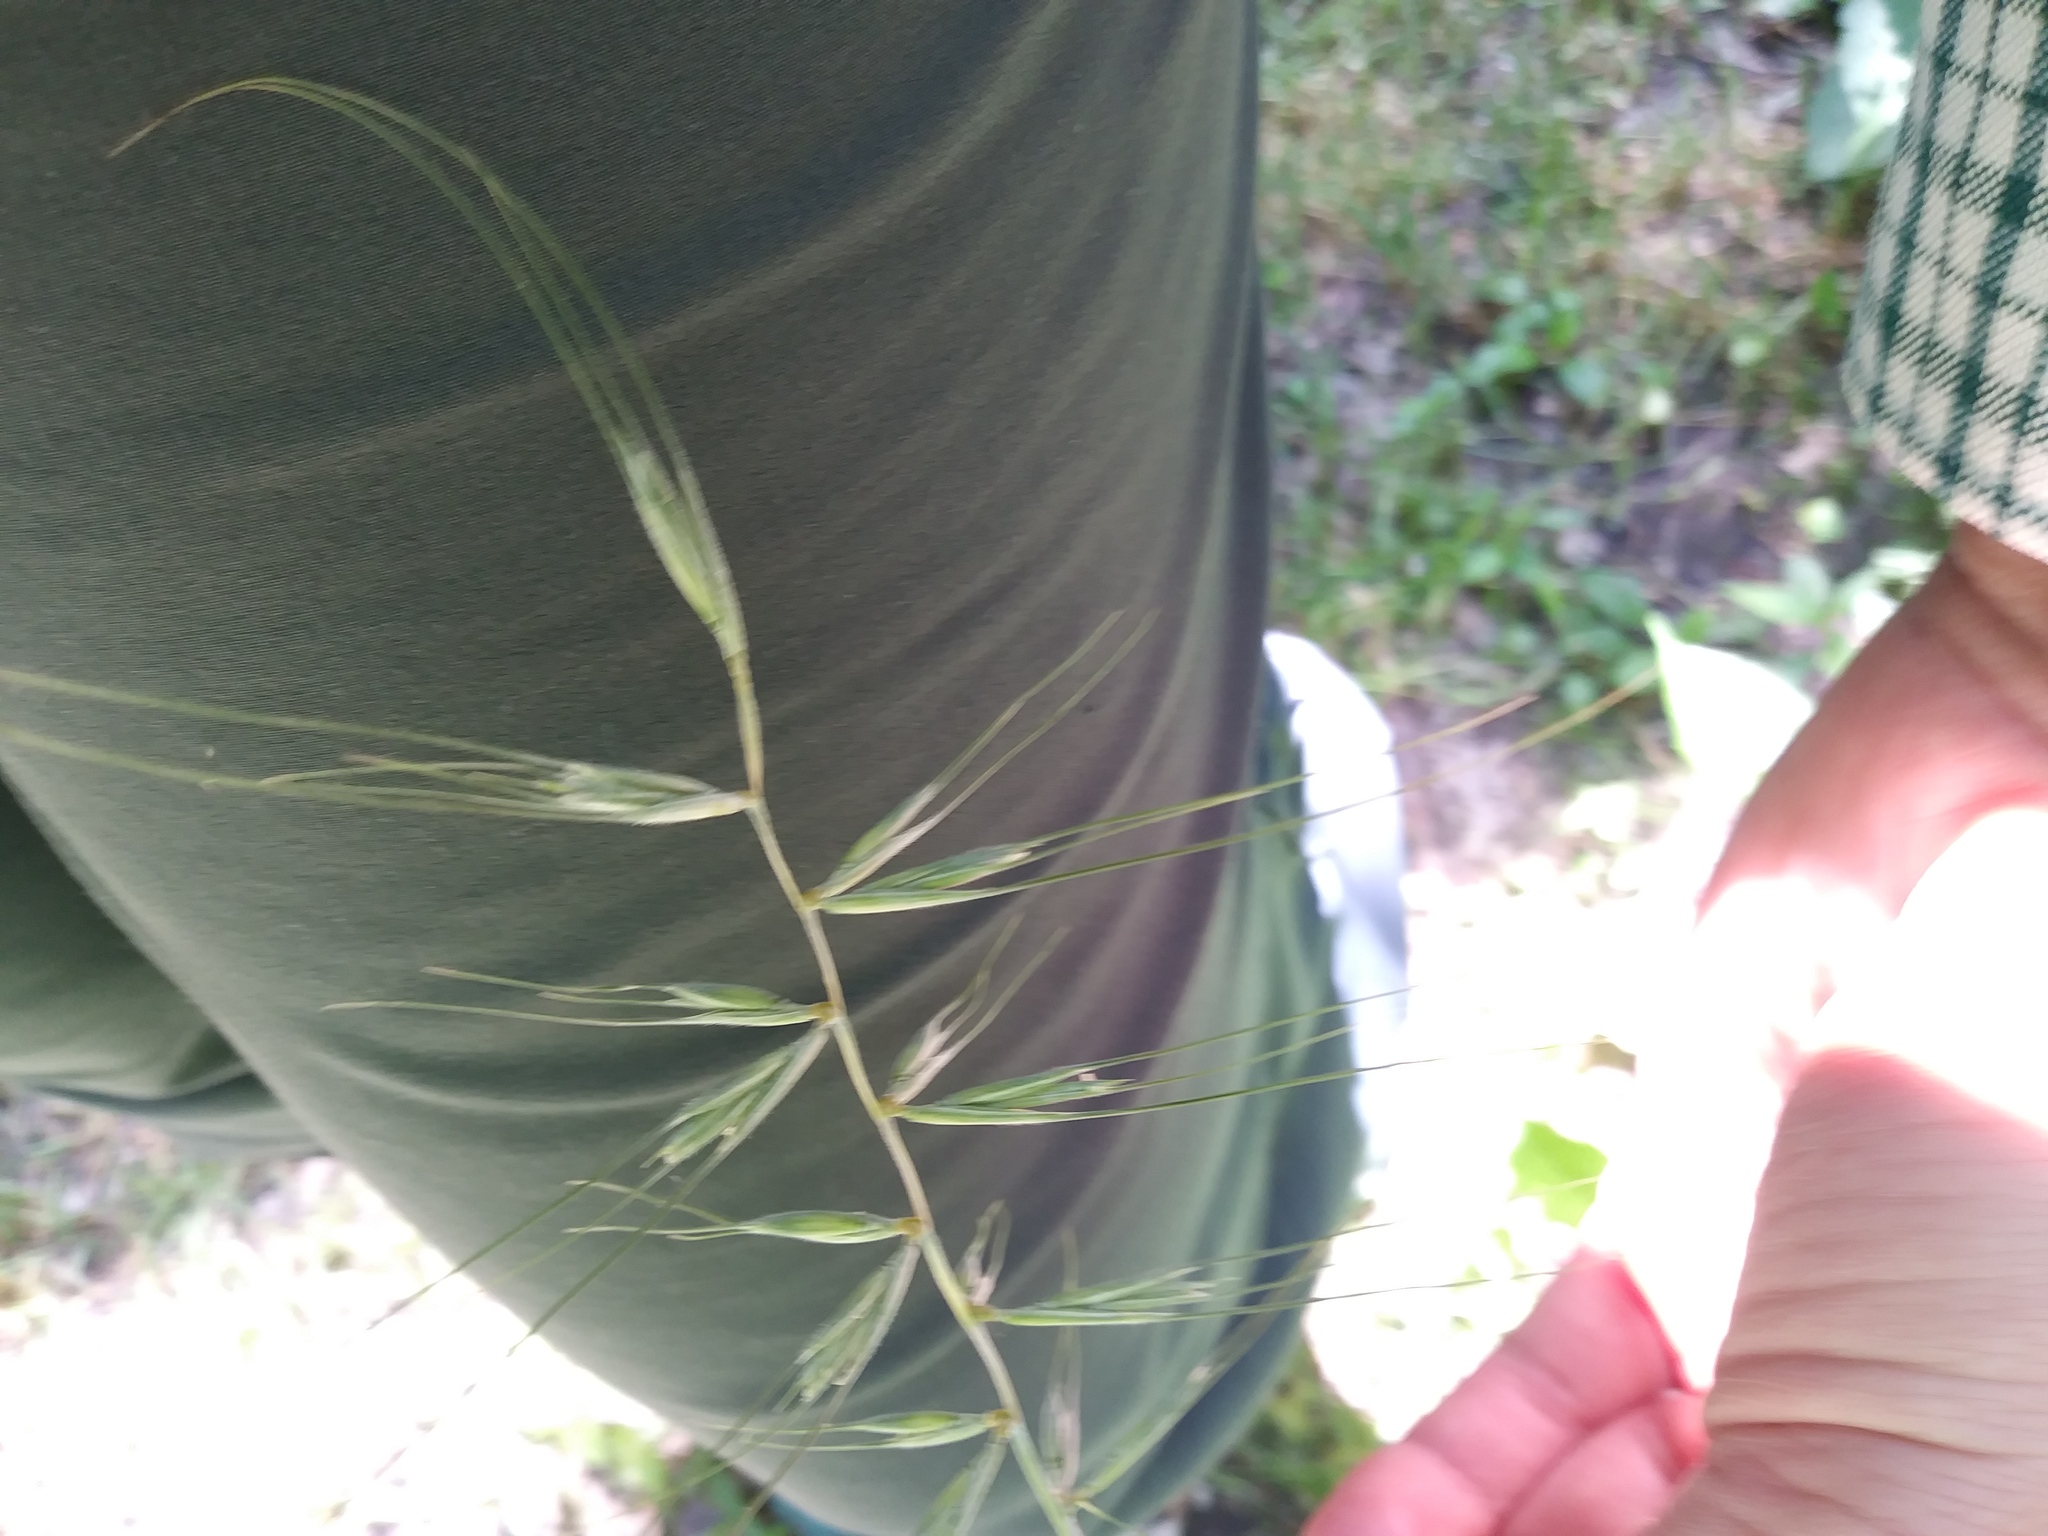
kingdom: Plantae
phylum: Tracheophyta
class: Liliopsida
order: Poales
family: Poaceae
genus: Elymus
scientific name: Elymus hystrix
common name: Bottlebrush grass
